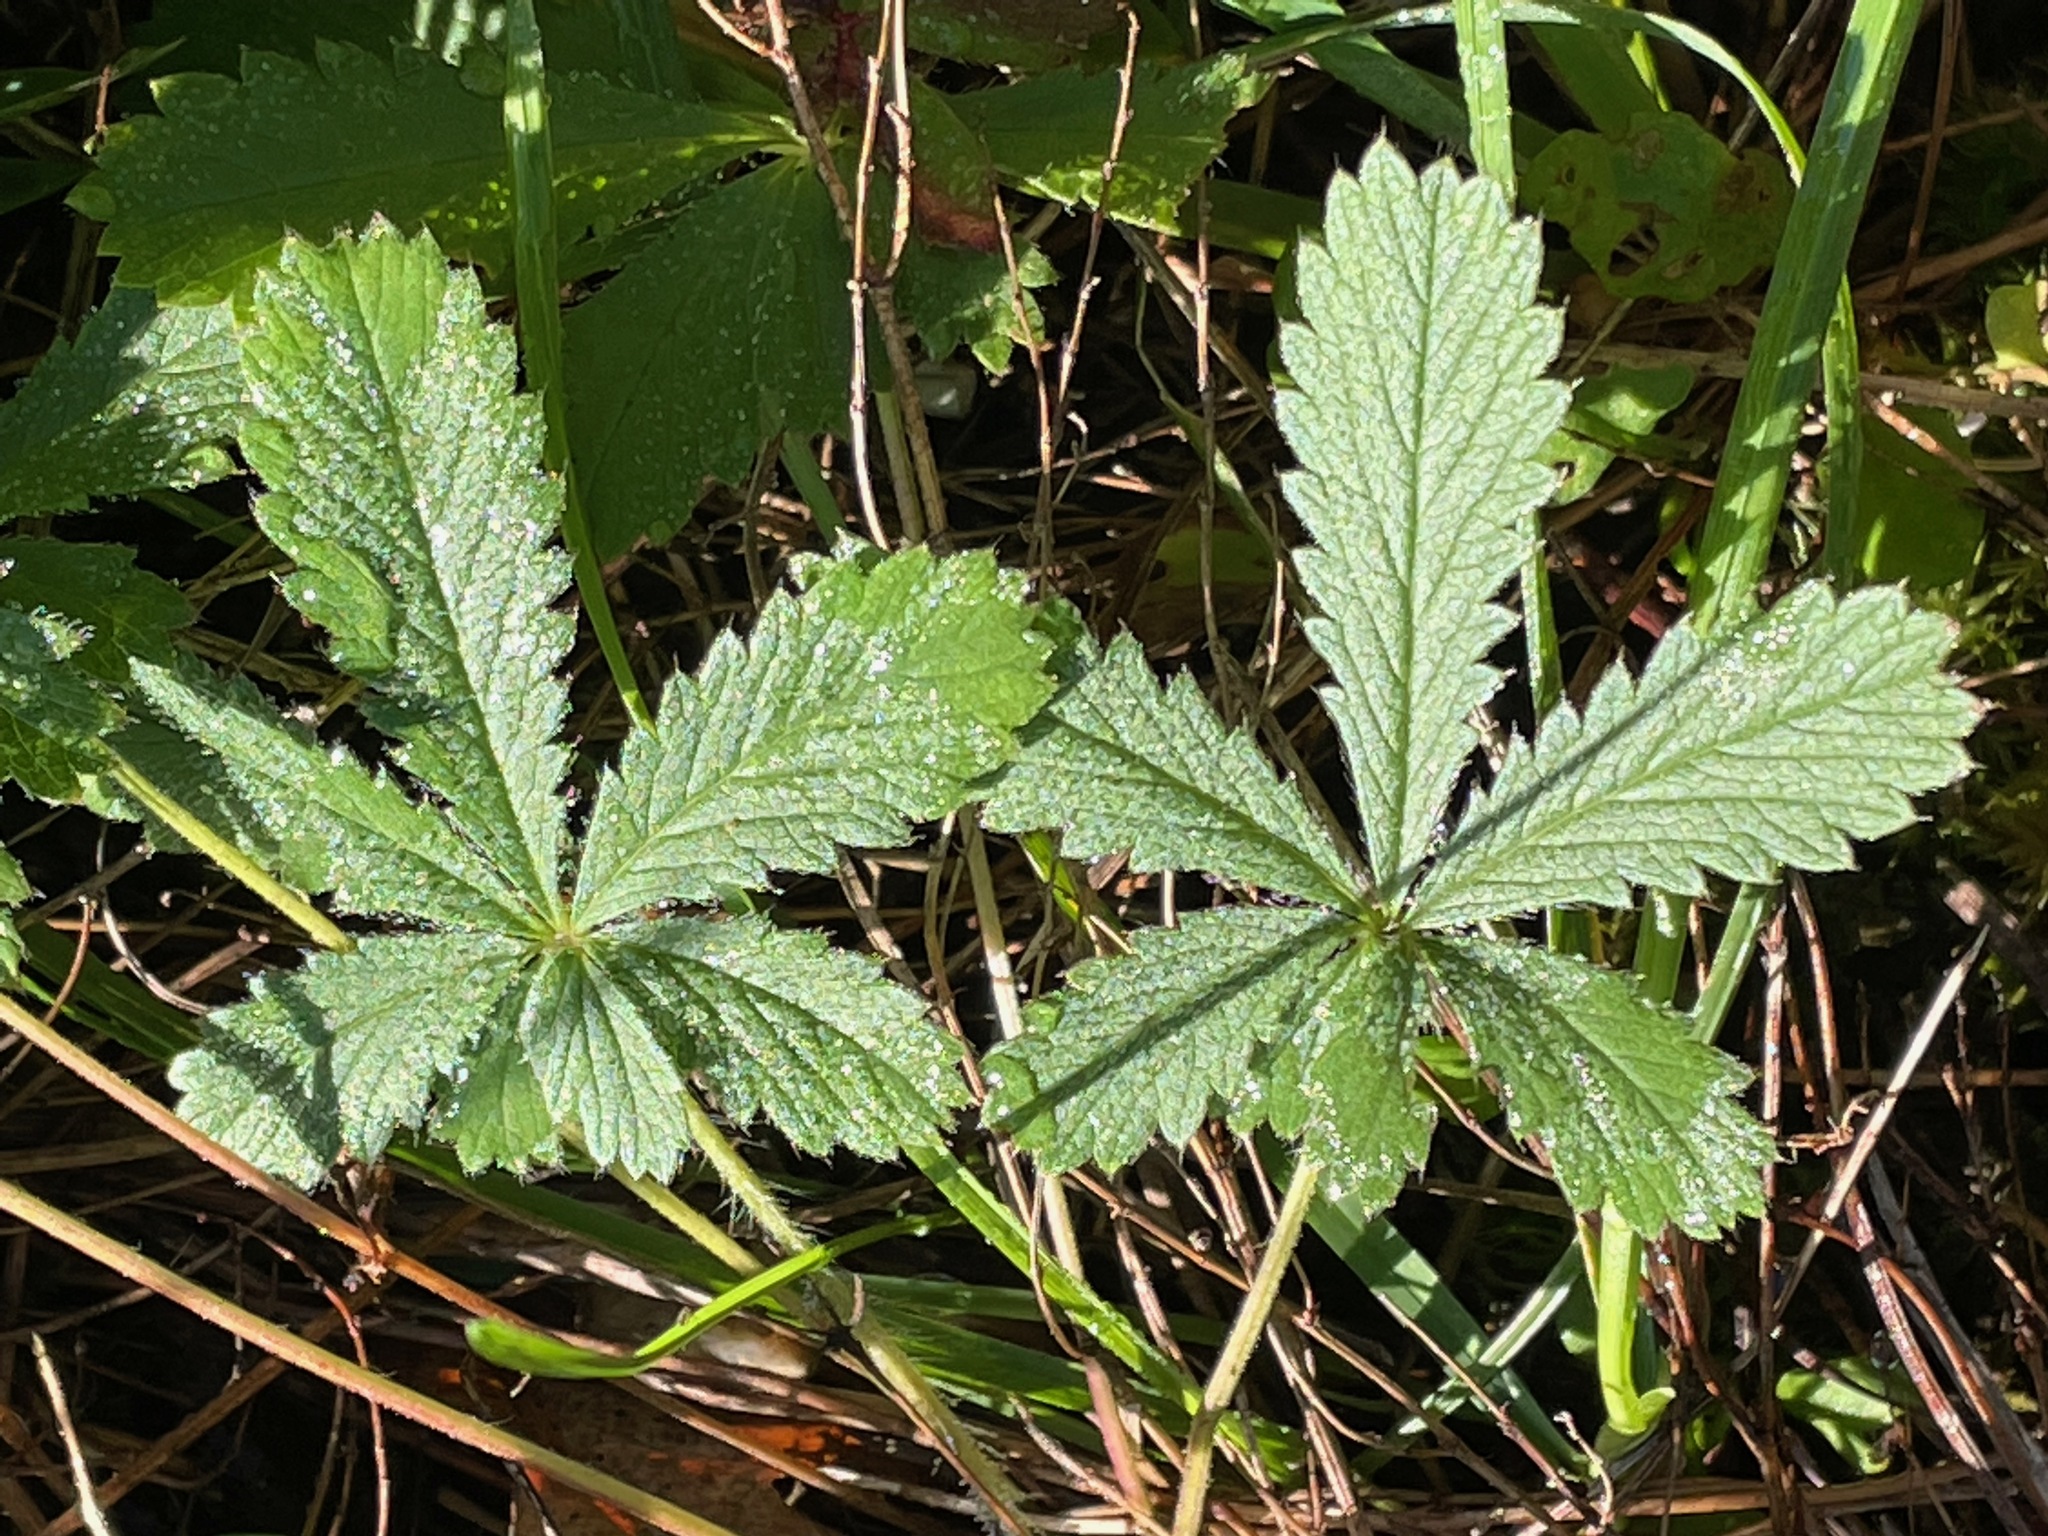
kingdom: Plantae
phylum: Tracheophyta
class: Magnoliopsida
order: Rosales
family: Rosaceae
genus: Potentilla
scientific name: Potentilla recta
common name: Sulphur cinquefoil
